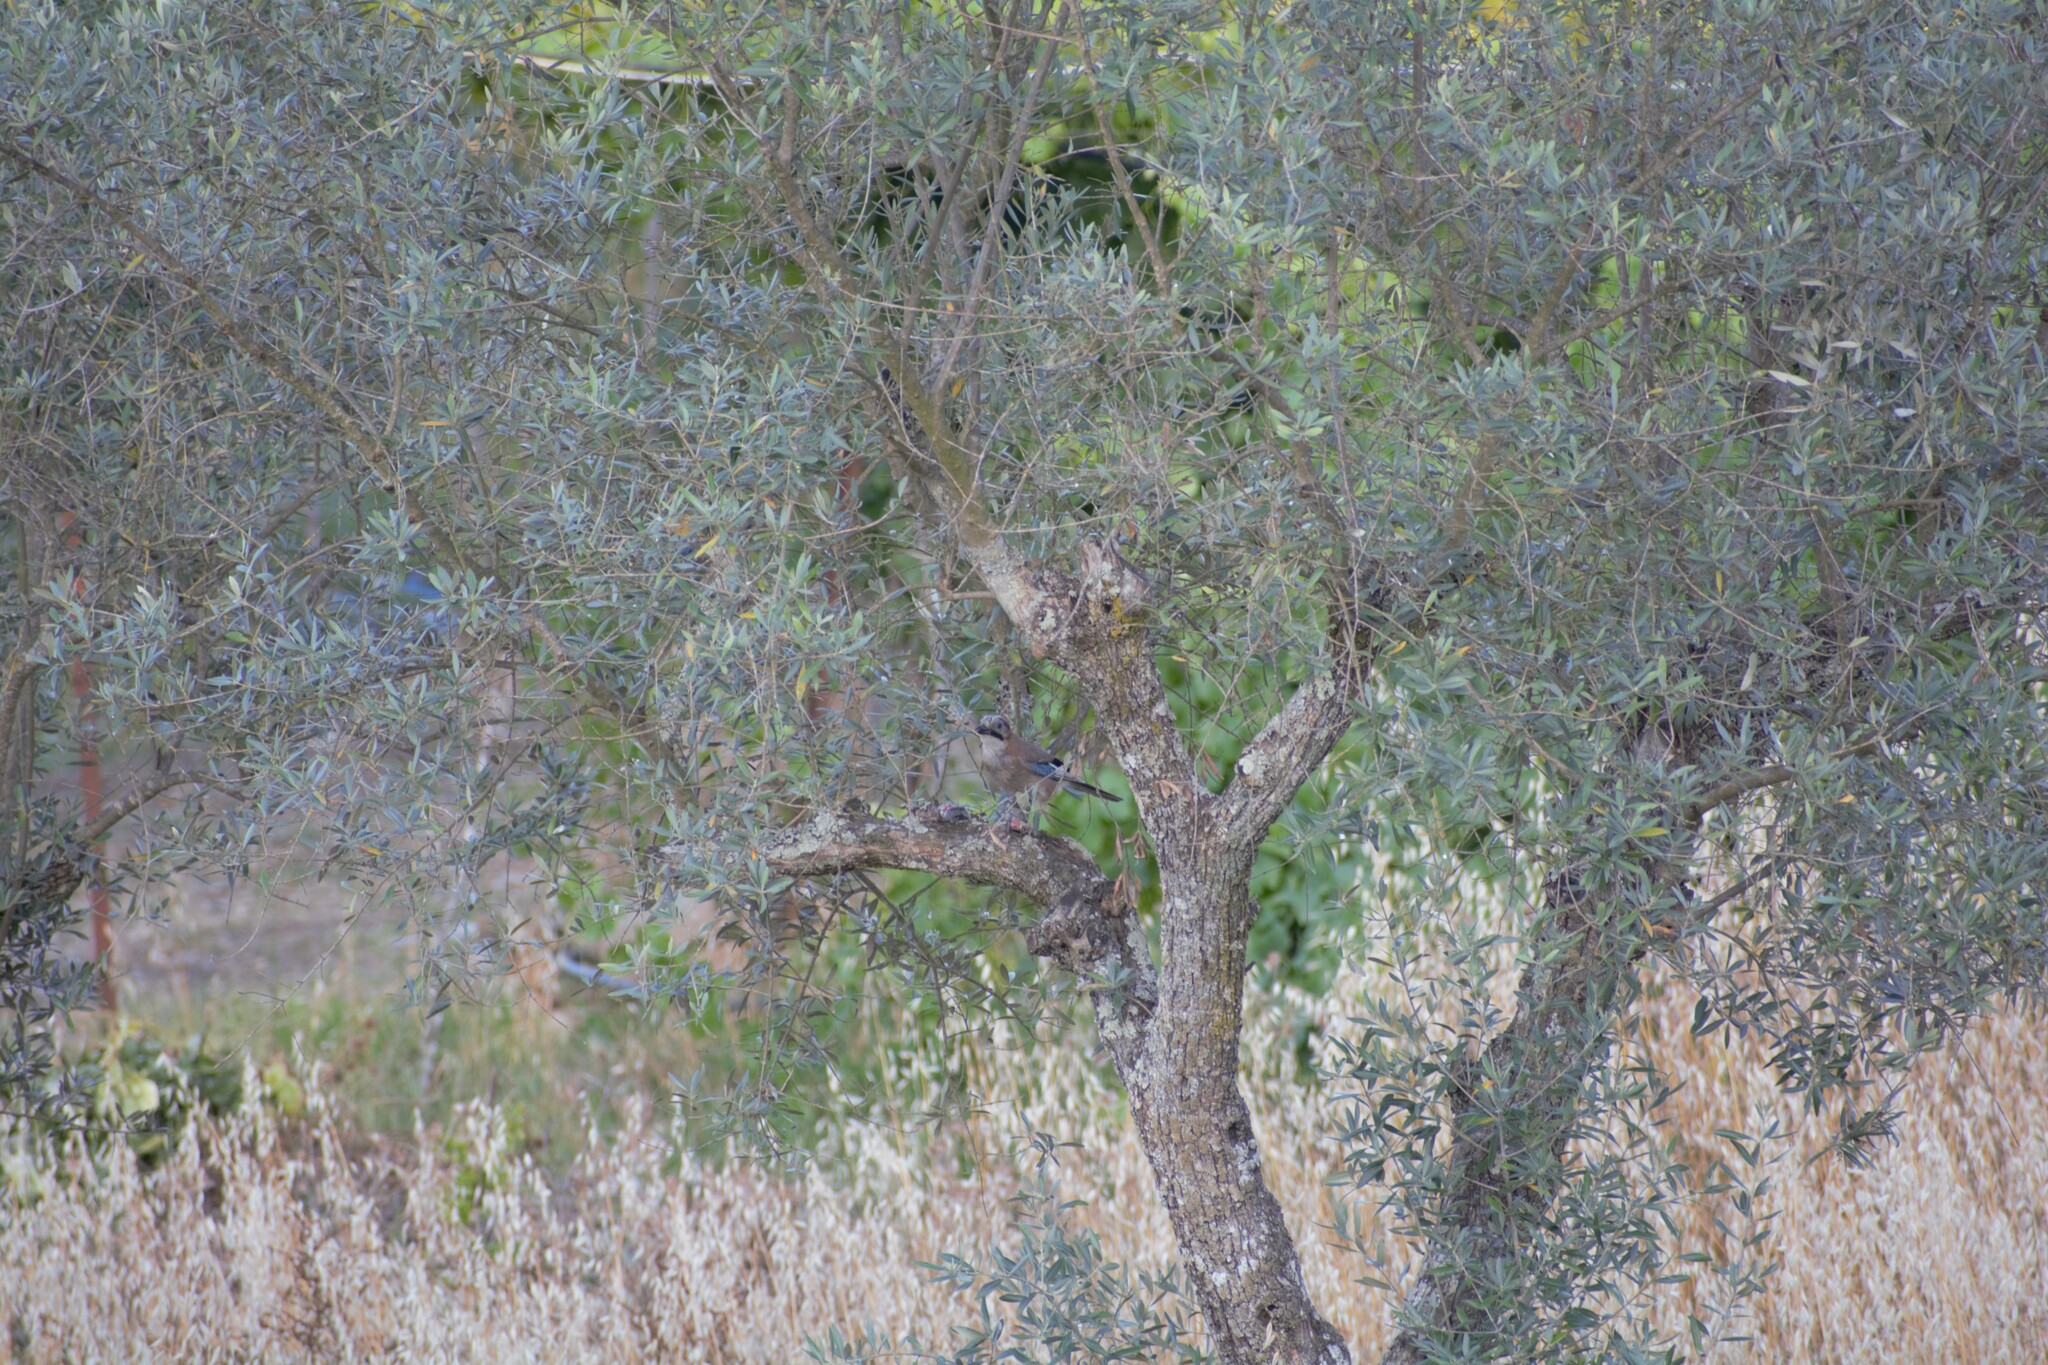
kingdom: Animalia
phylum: Chordata
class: Aves
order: Passeriformes
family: Corvidae
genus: Garrulus
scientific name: Garrulus glandarius
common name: Eurasian jay
